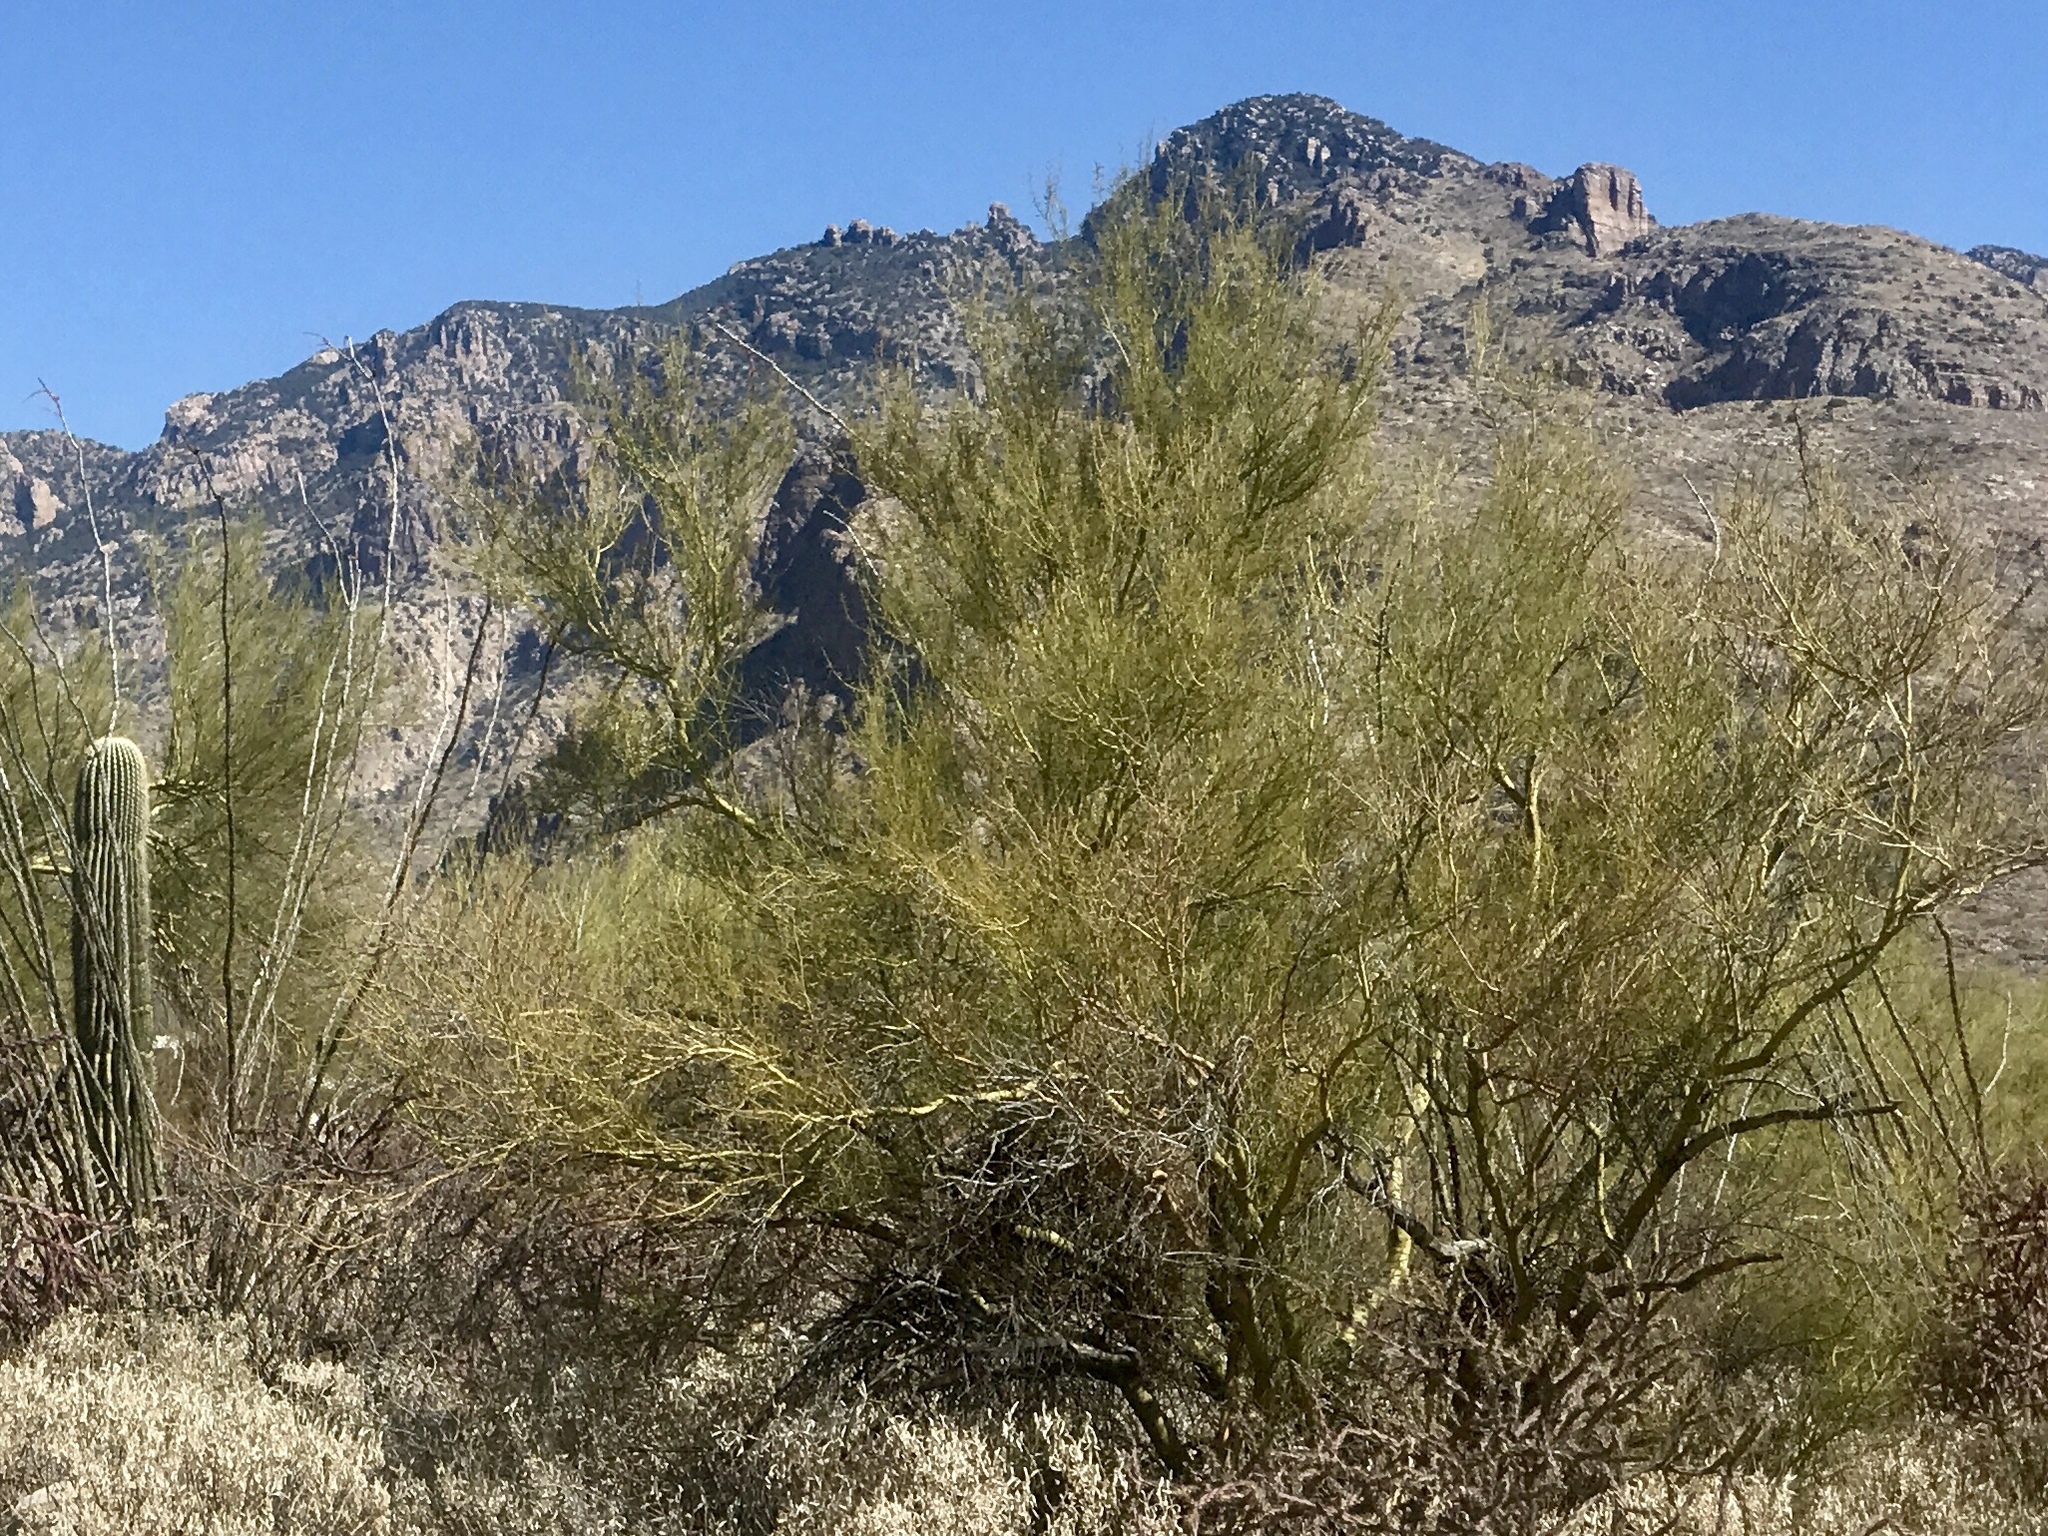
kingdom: Plantae
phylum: Tracheophyta
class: Magnoliopsida
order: Fabales
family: Fabaceae
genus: Parkinsonia
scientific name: Parkinsonia microphylla
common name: Yellow paloverde
